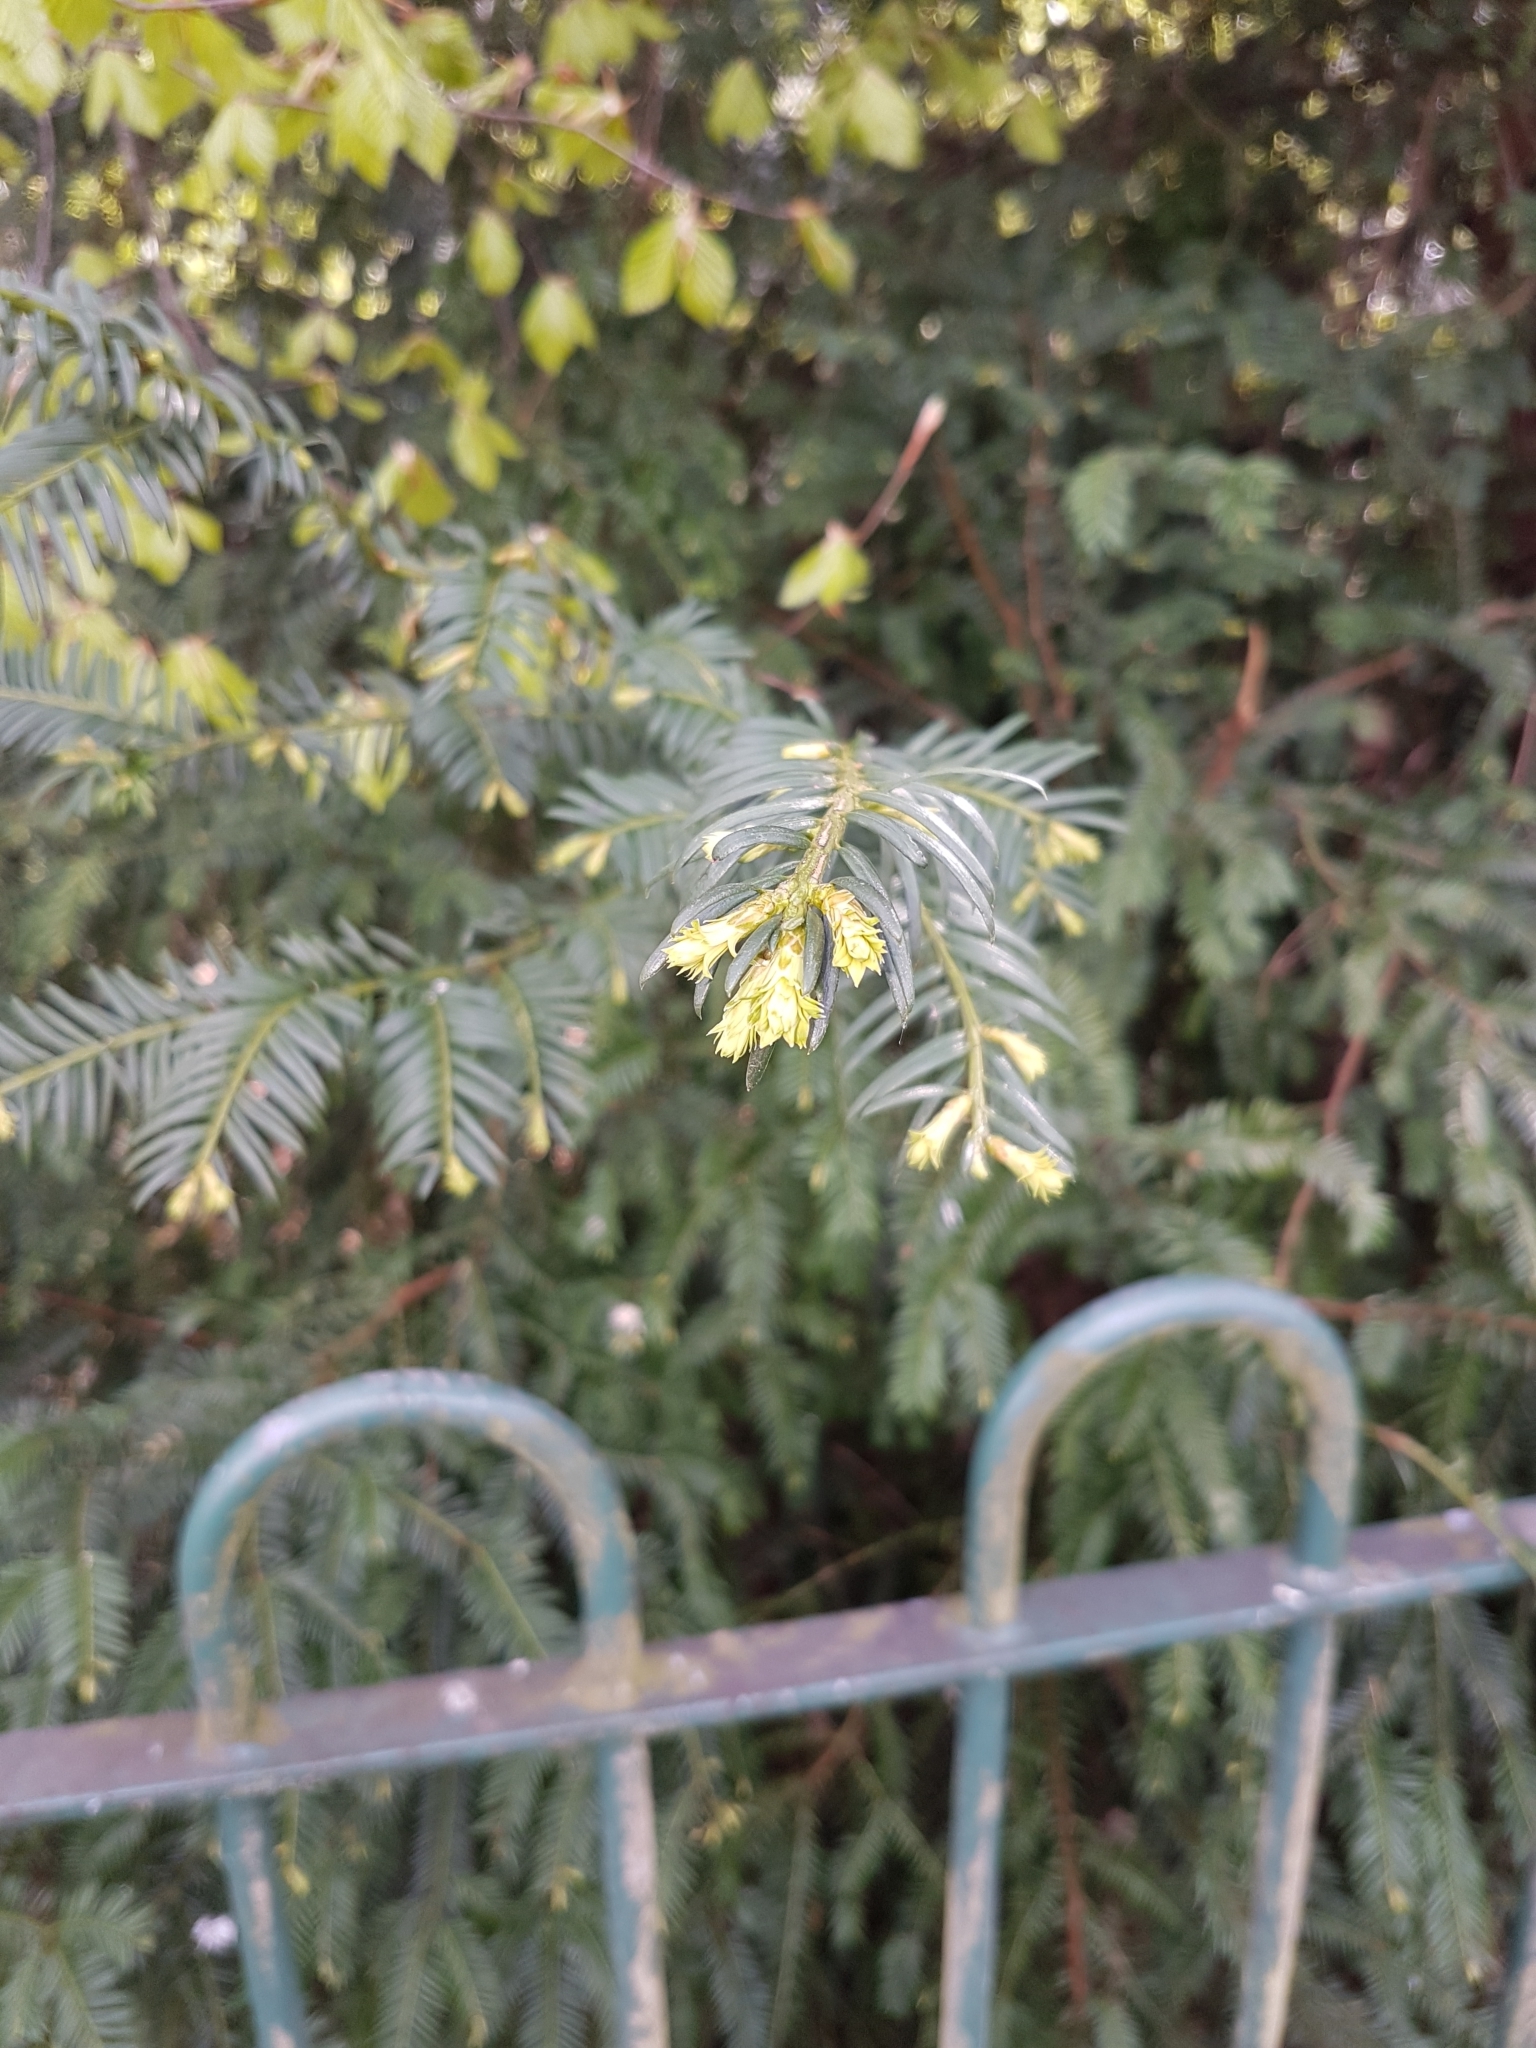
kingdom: Plantae
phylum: Tracheophyta
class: Pinopsida
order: Pinales
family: Taxaceae
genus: Taxus
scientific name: Taxus baccata
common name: Yew
